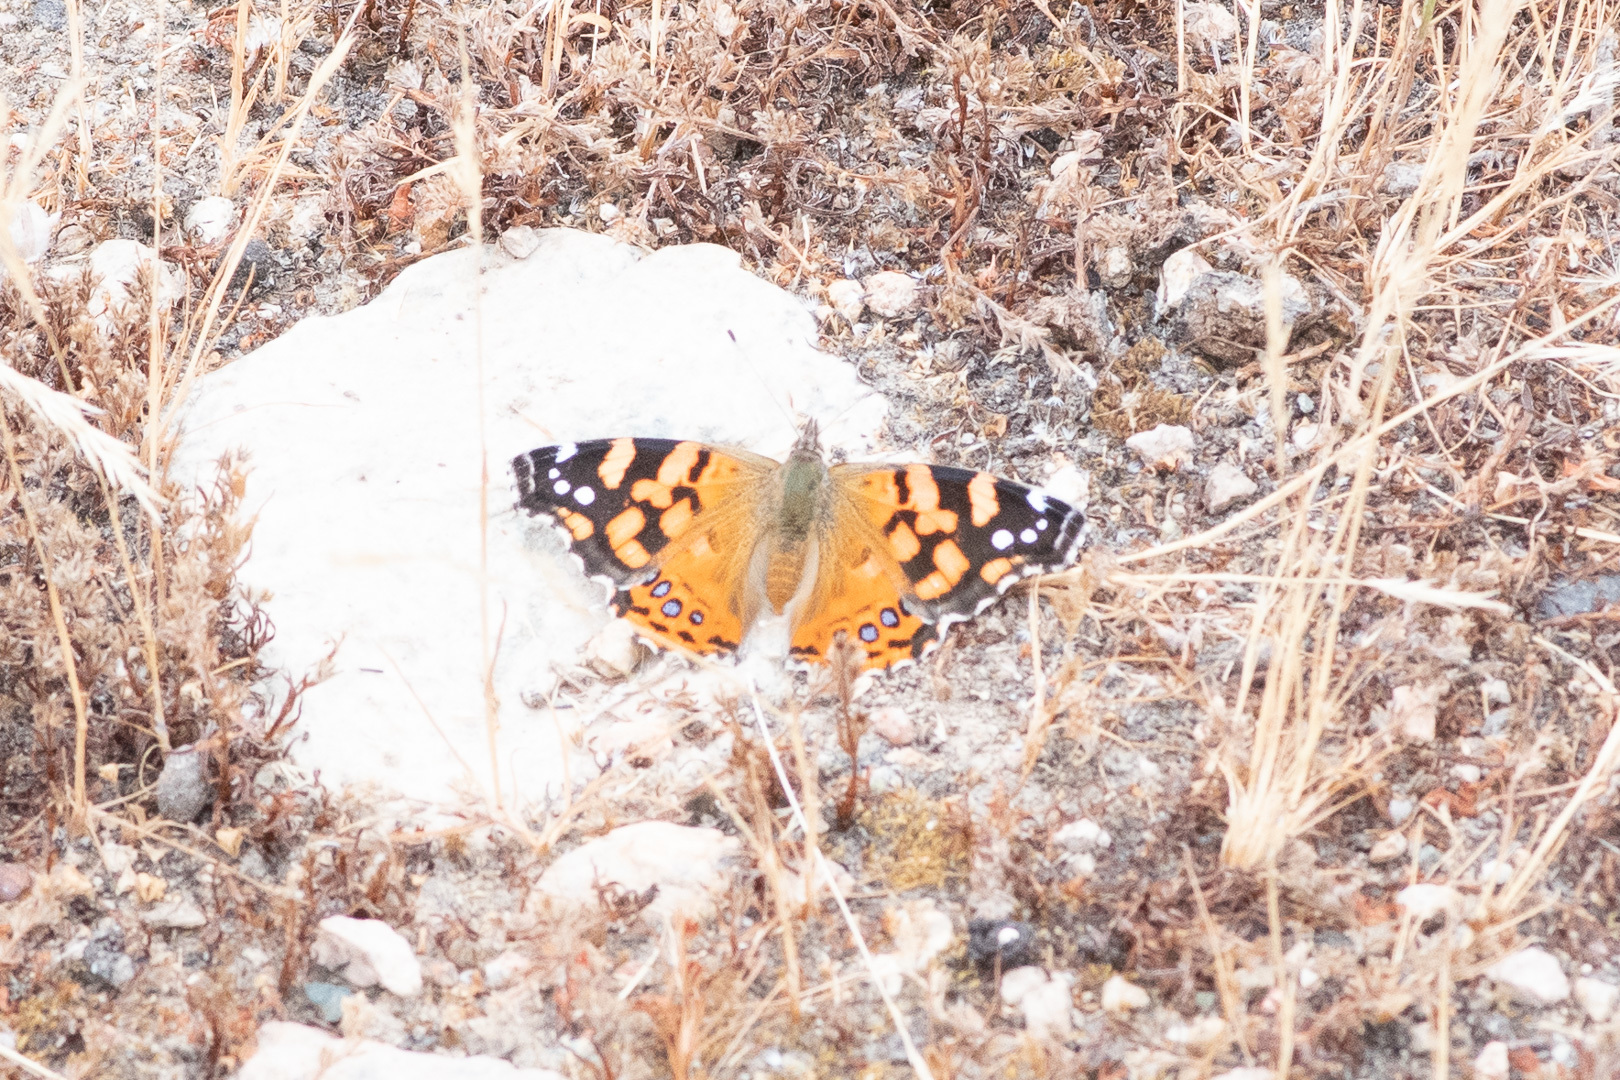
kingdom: Animalia
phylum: Arthropoda
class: Insecta
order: Lepidoptera
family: Nymphalidae
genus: Vanessa
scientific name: Vanessa carye
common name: Subtropical lady
